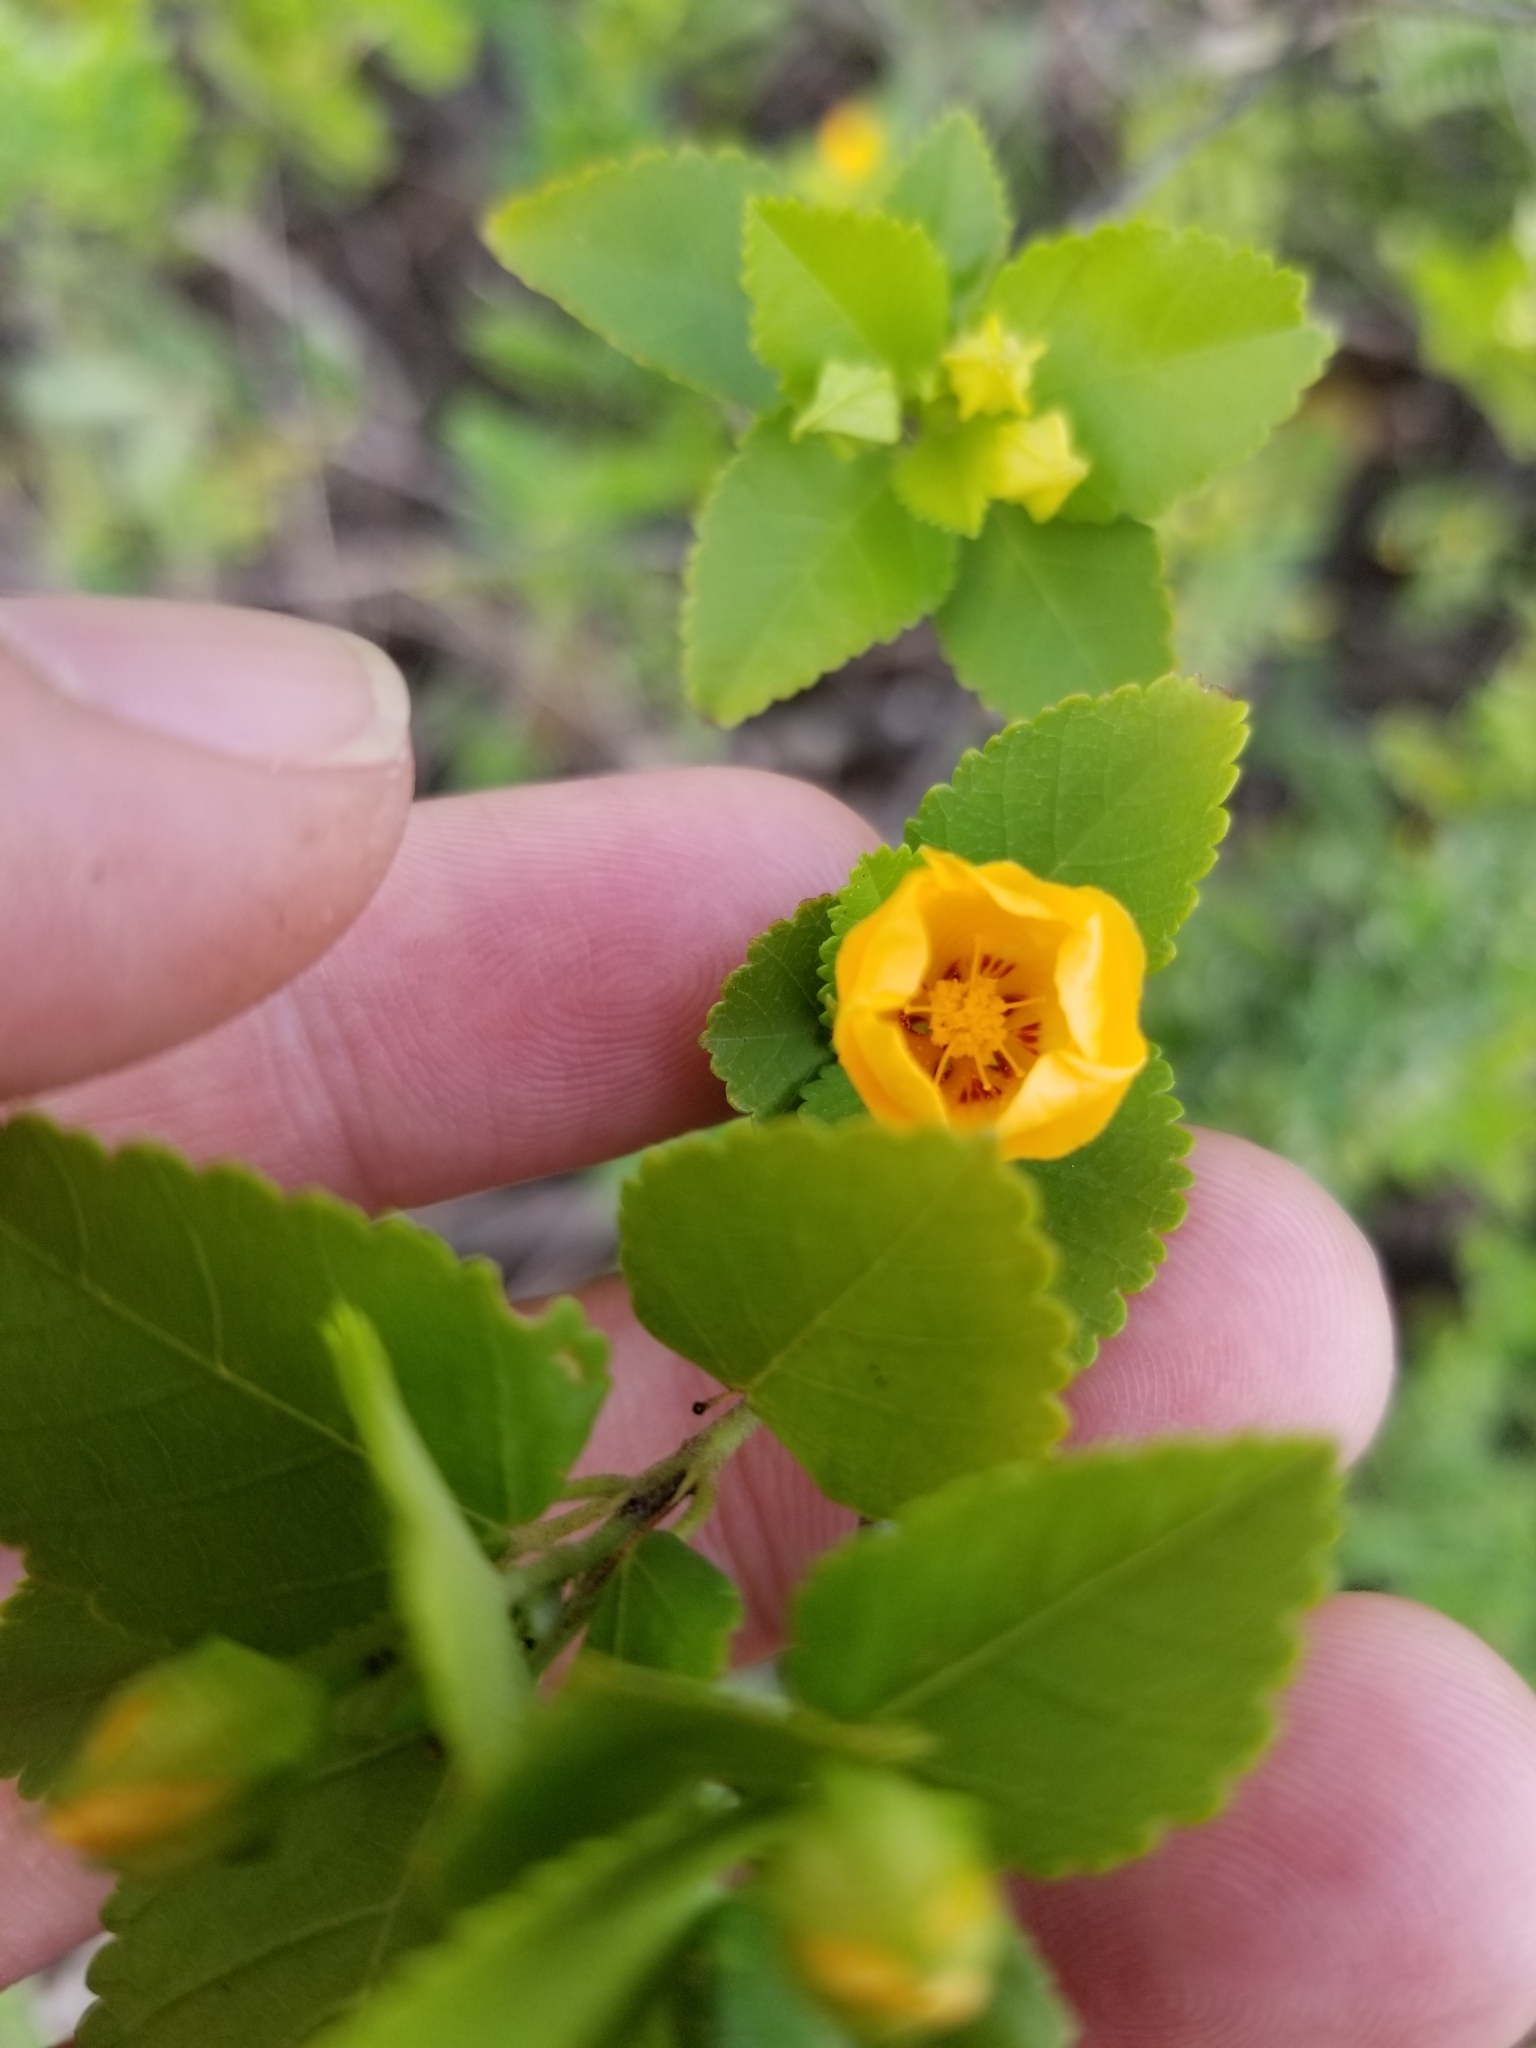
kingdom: Plantae
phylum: Tracheophyta
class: Magnoliopsida
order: Malvales
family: Malvaceae
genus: Sida
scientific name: Sida fallax
